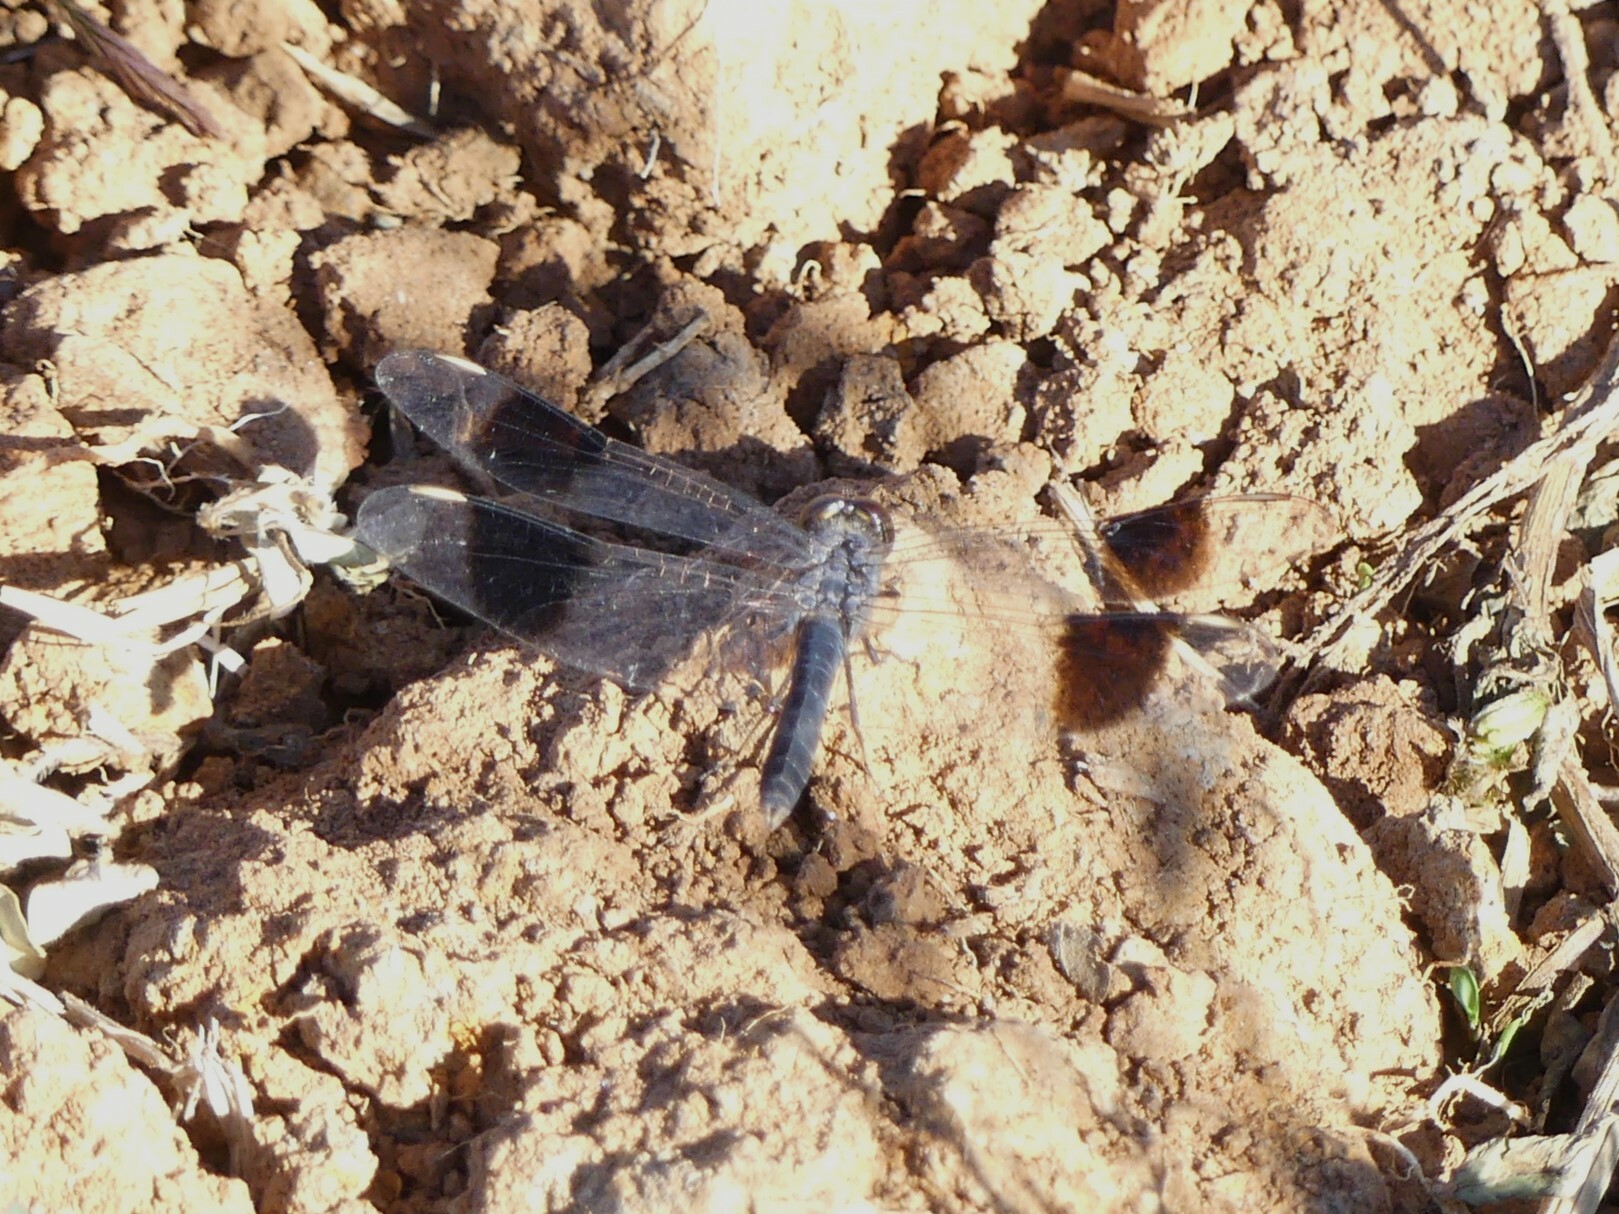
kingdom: Animalia
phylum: Arthropoda
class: Insecta
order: Odonata
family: Libellulidae
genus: Brachythemis
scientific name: Brachythemis leucosticta
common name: Banded groundling
